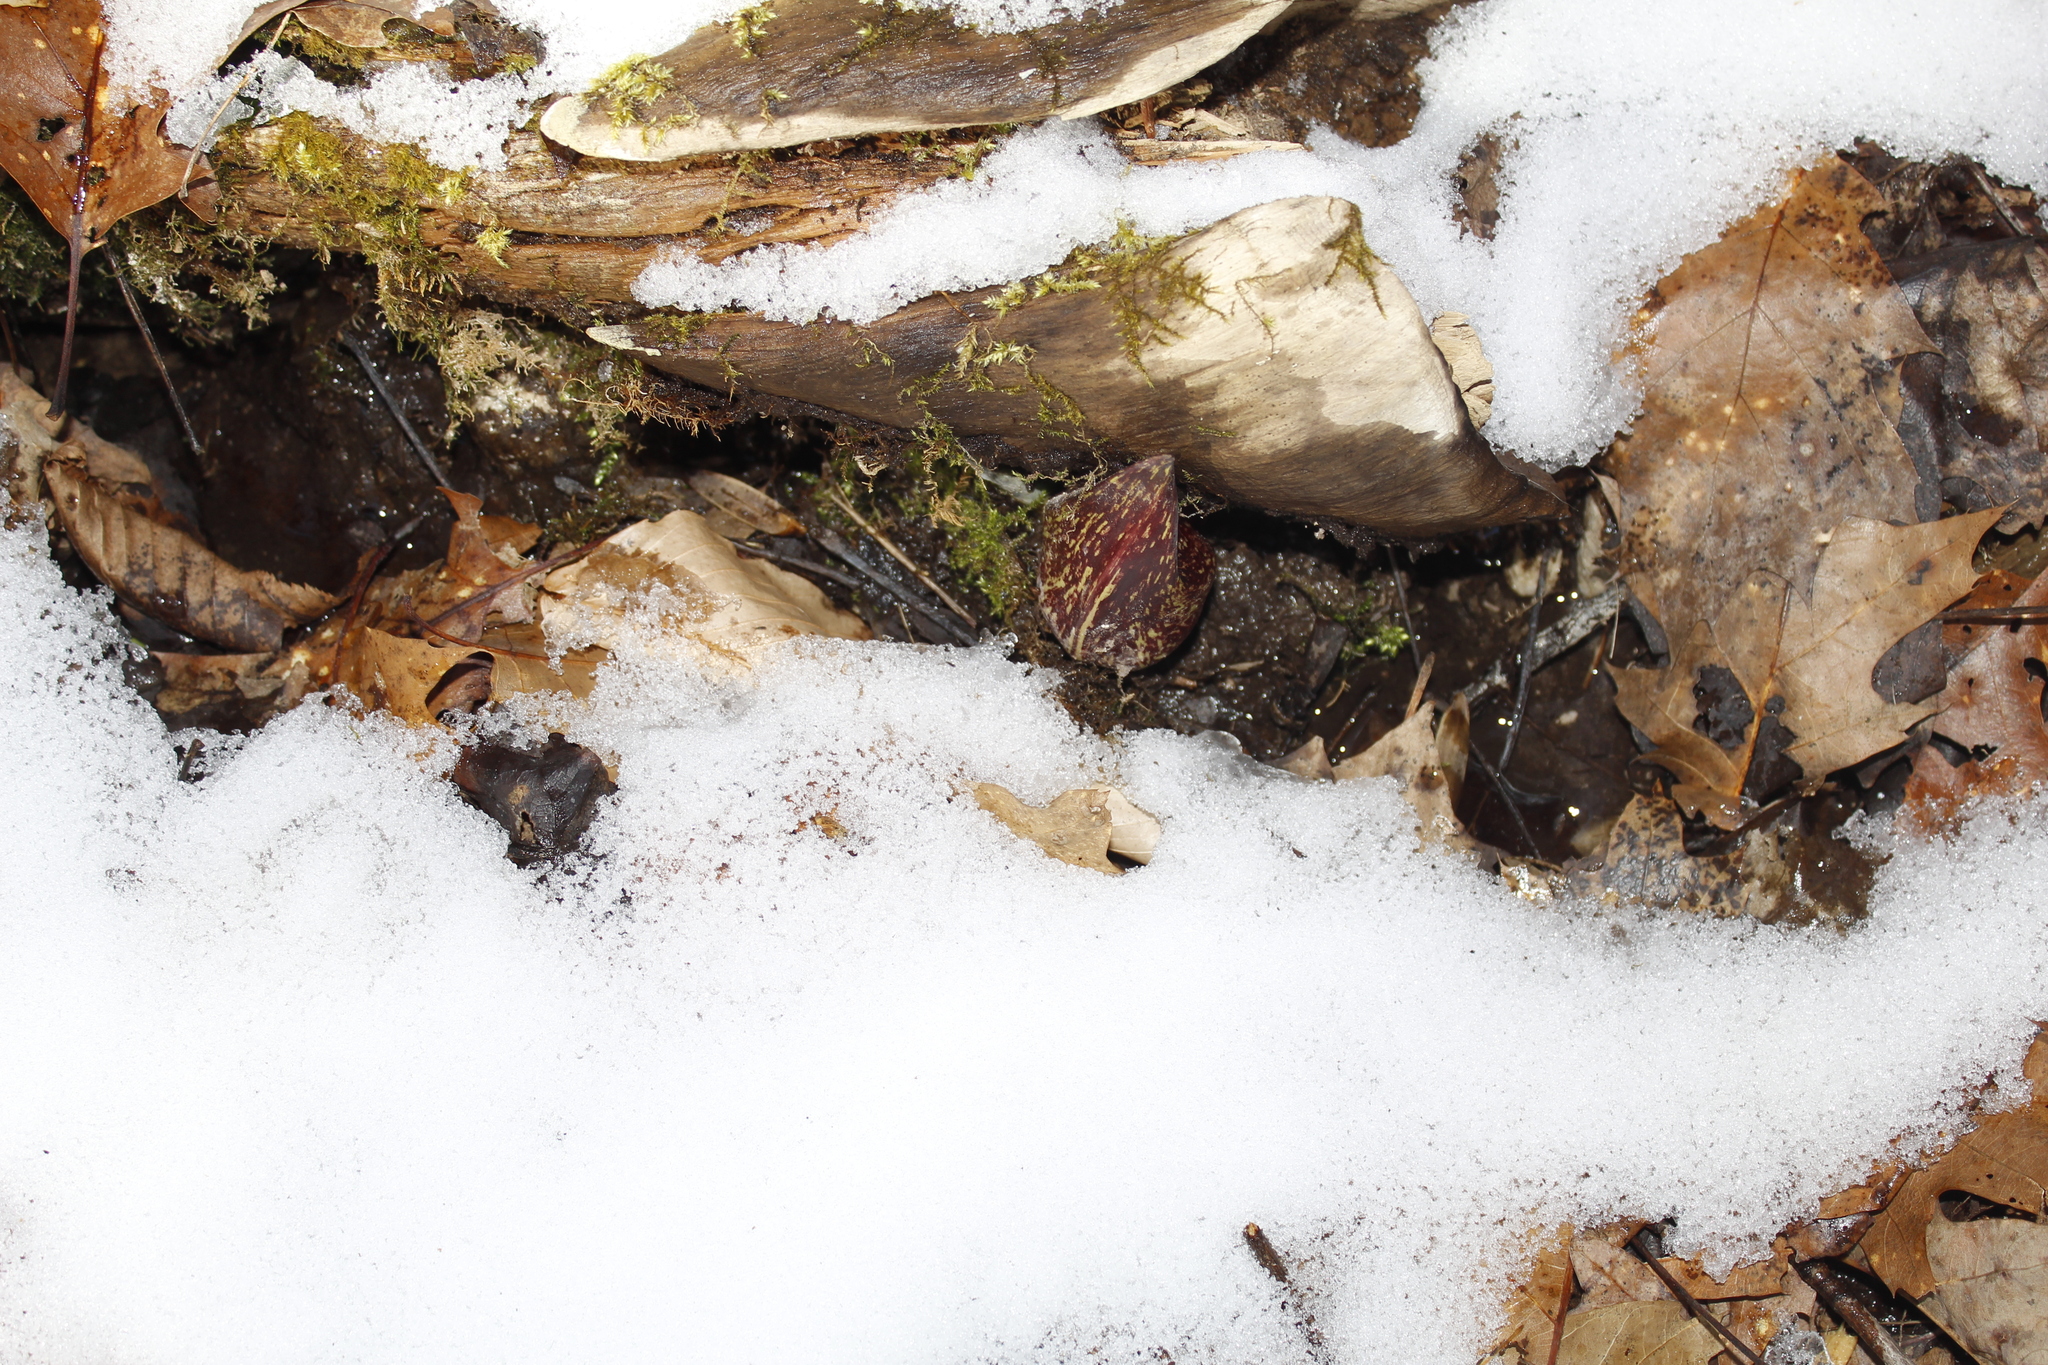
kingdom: Plantae
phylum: Tracheophyta
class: Liliopsida
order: Alismatales
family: Araceae
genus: Symplocarpus
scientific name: Symplocarpus foetidus
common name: Eastern skunk cabbage
